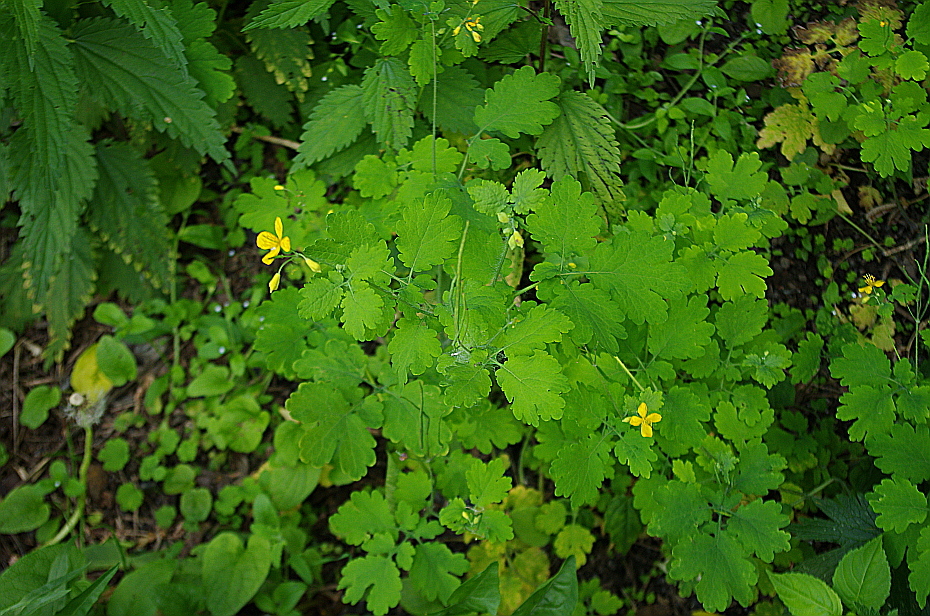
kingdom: Plantae
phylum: Tracheophyta
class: Magnoliopsida
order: Ranunculales
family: Papaveraceae
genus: Chelidonium
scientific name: Chelidonium majus
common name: Greater celandine
